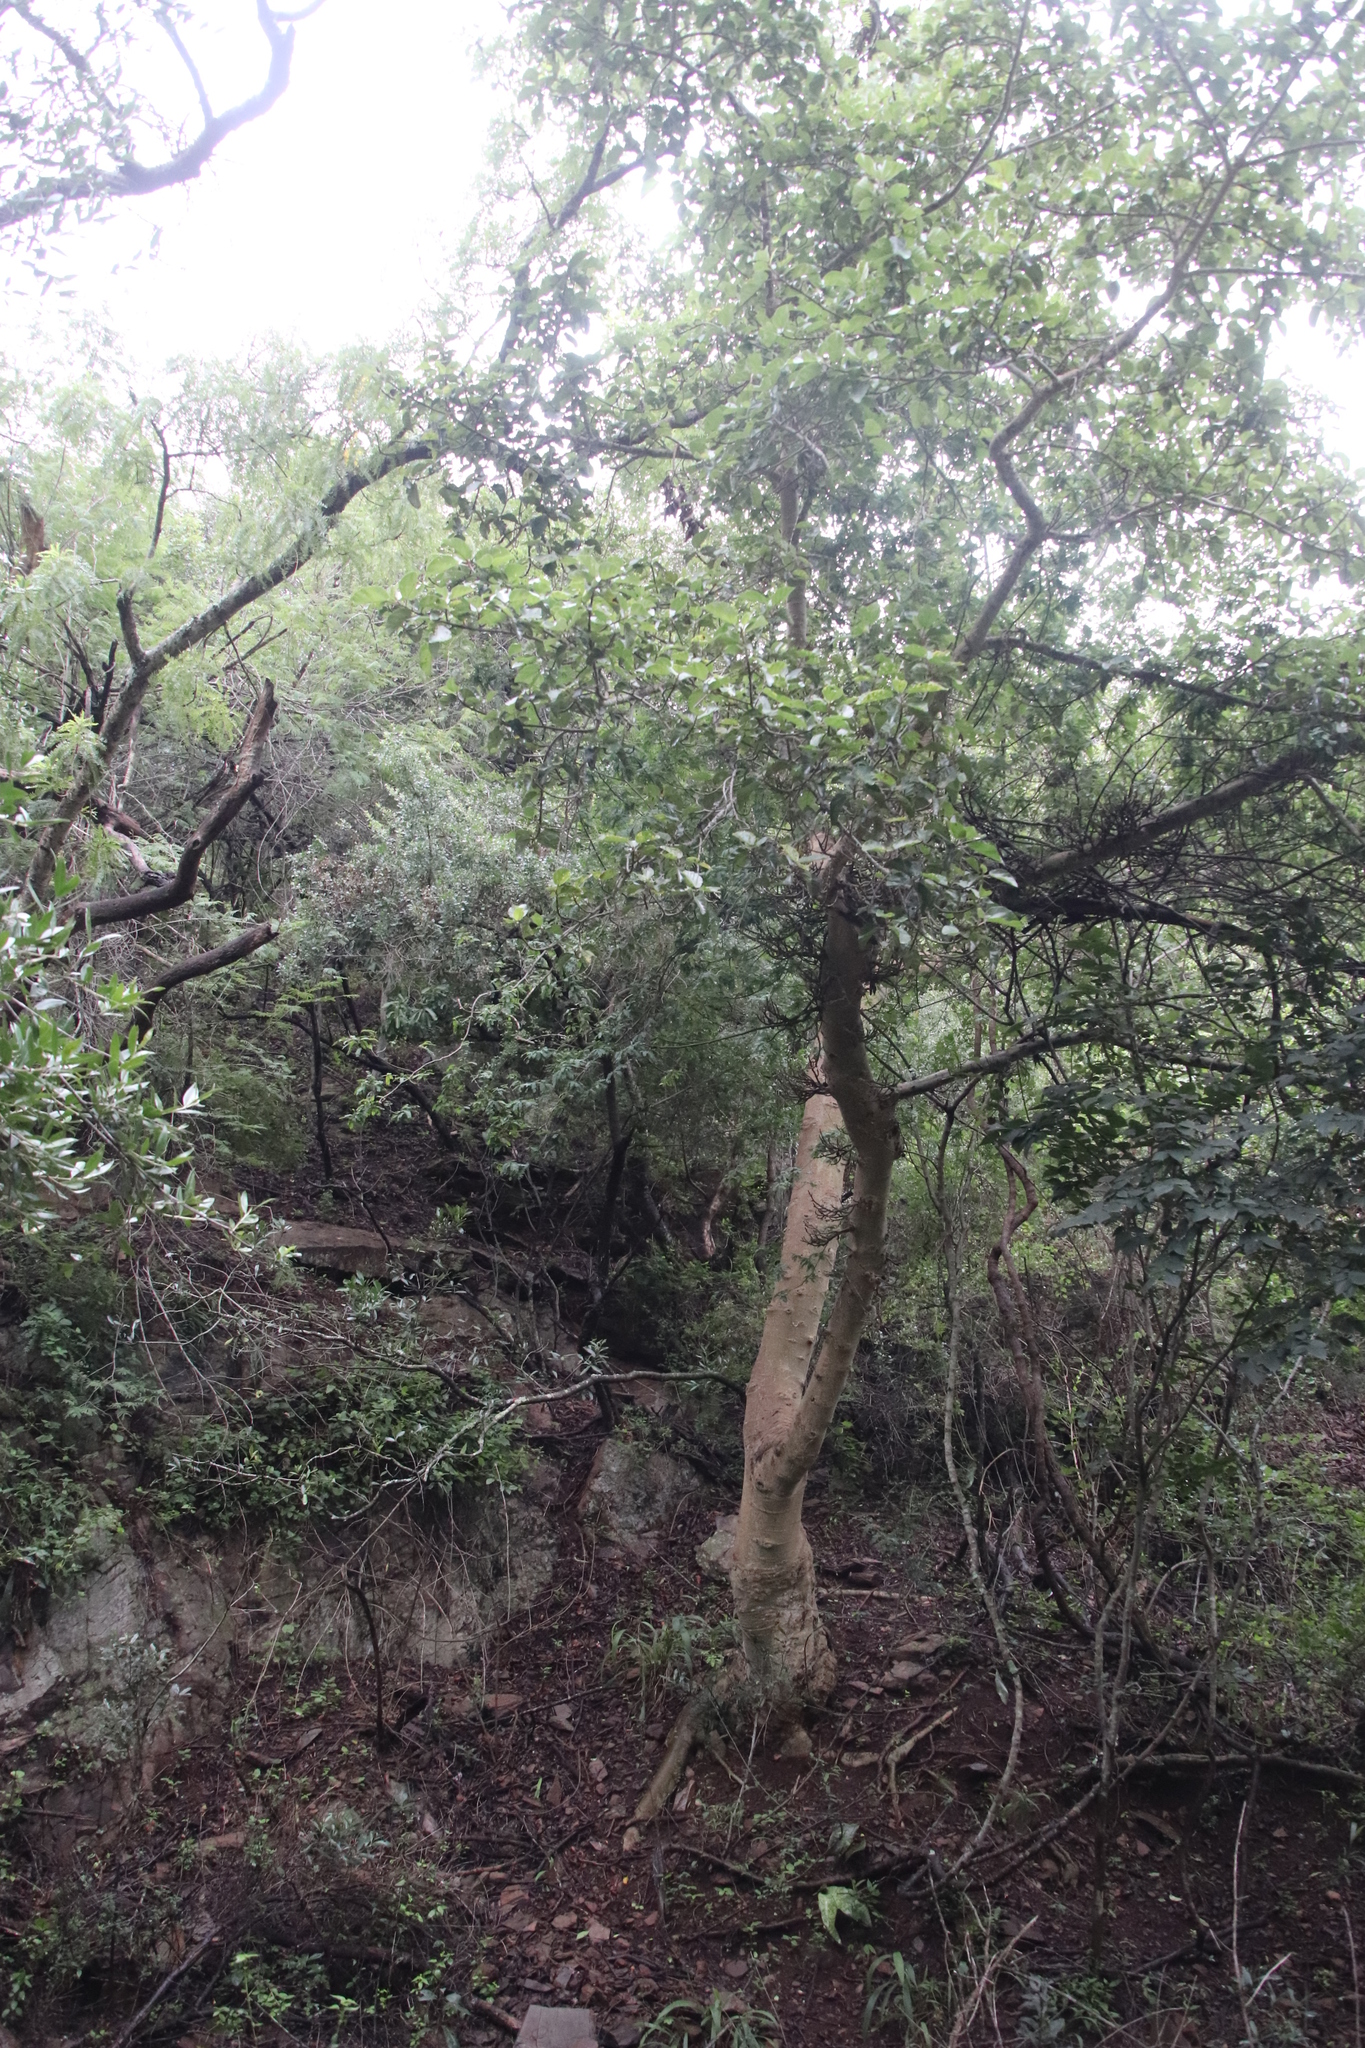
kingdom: Plantae
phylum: Tracheophyta
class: Magnoliopsida
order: Rosales
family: Moraceae
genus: Ficus
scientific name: Ficus sur
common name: Cape fig
